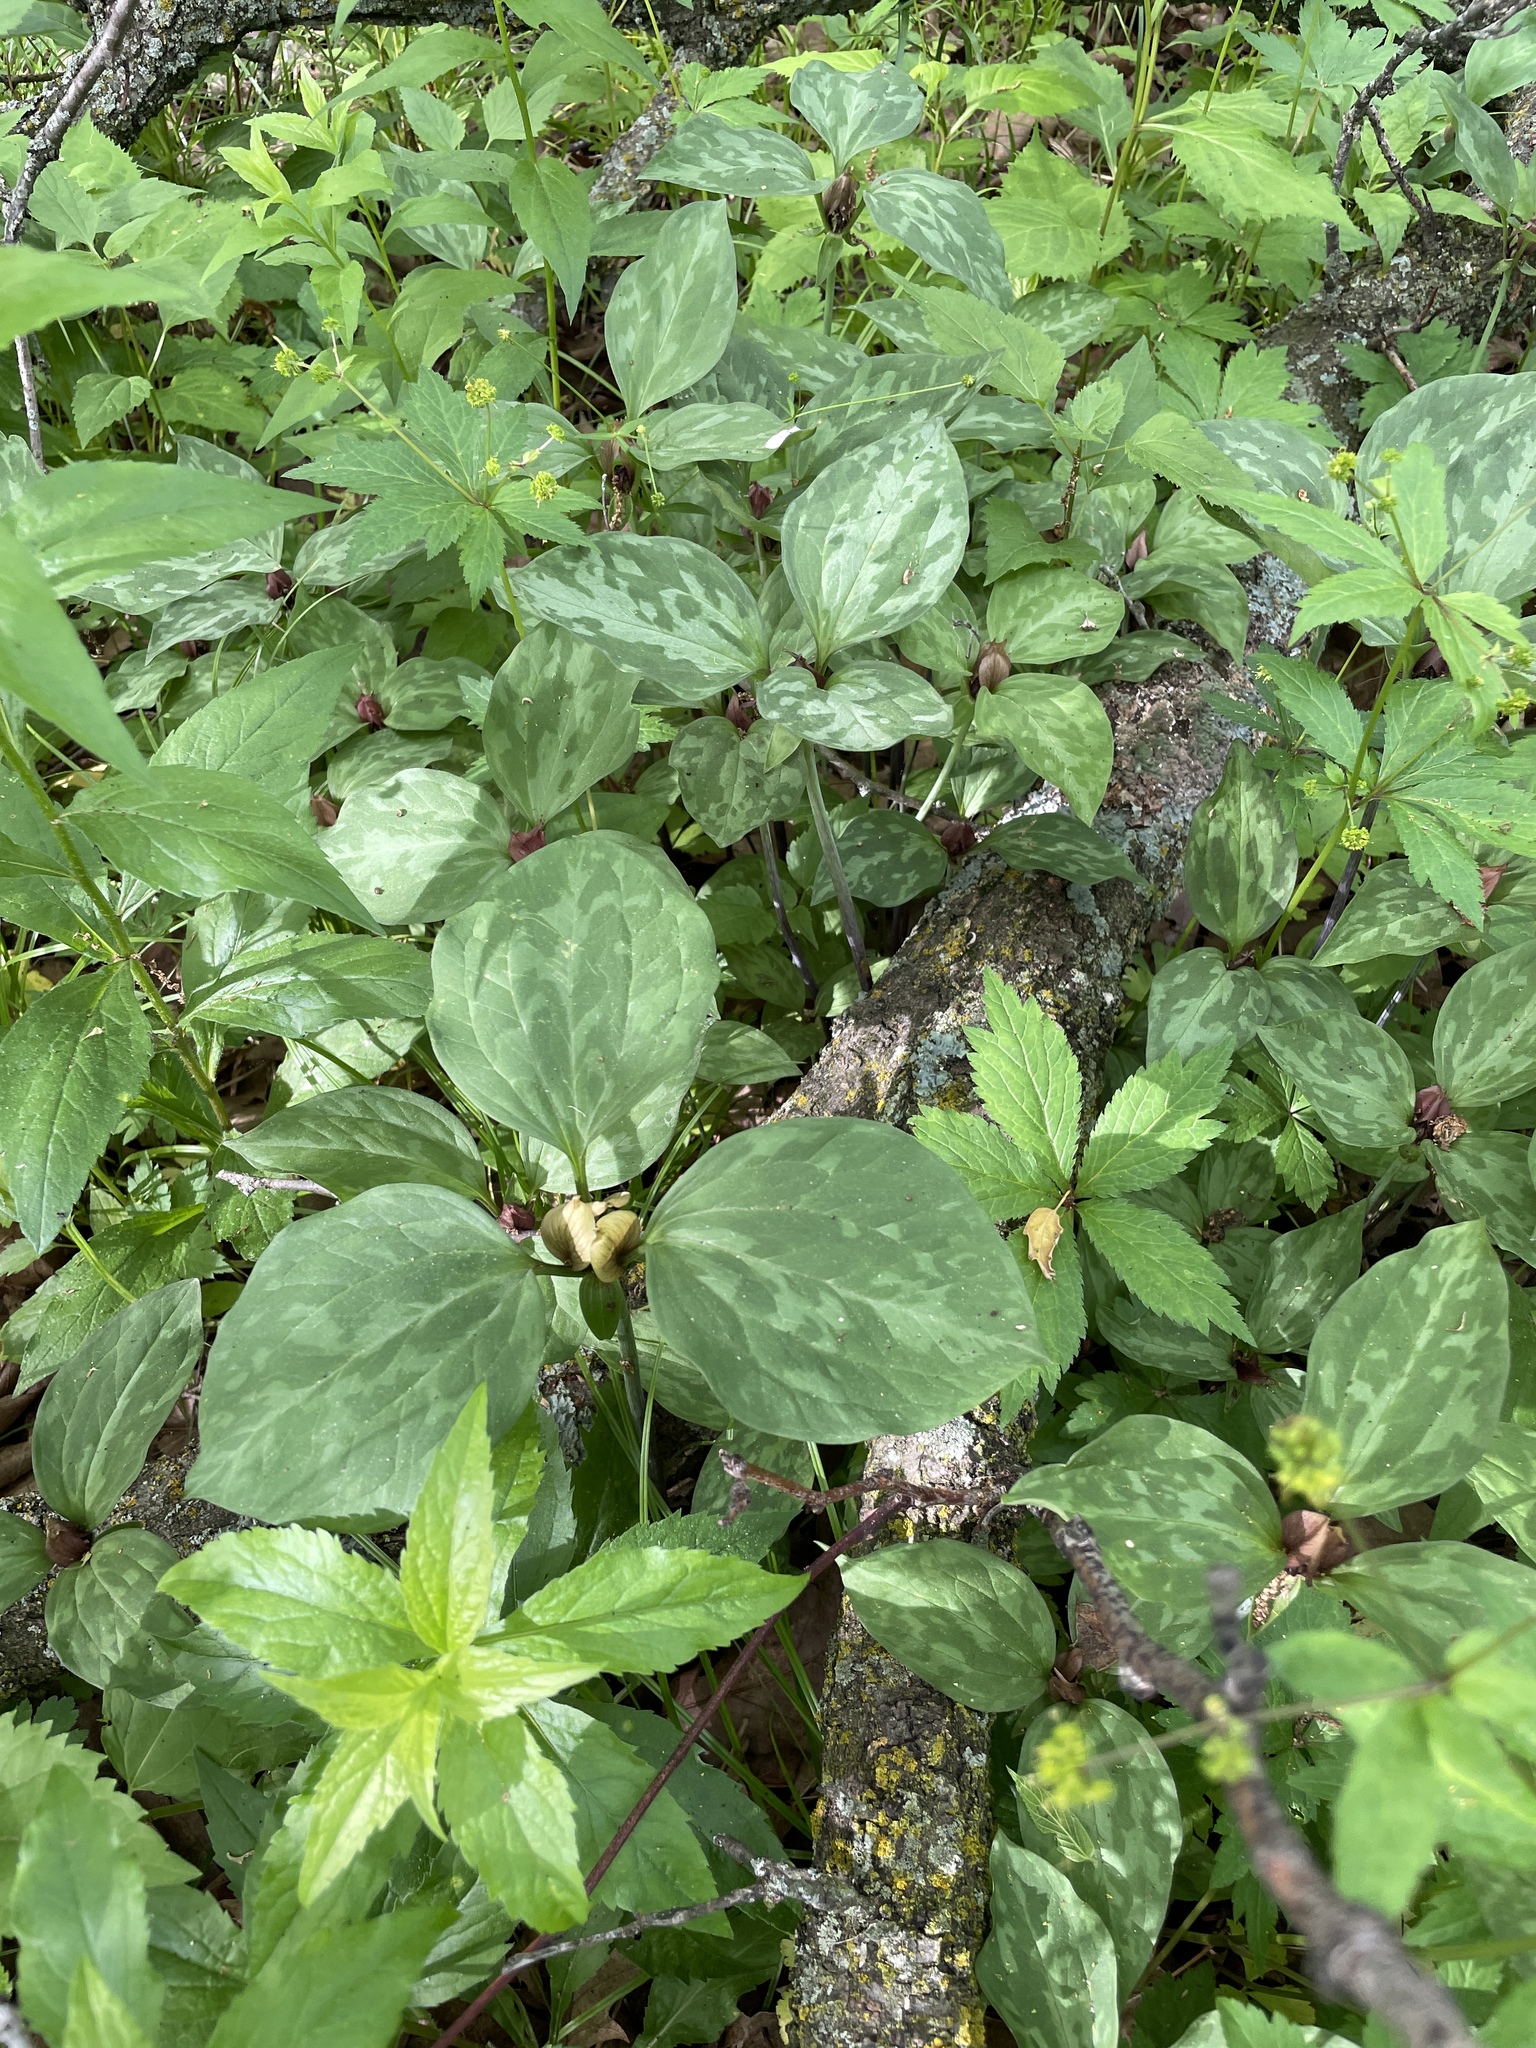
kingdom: Plantae
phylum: Tracheophyta
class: Liliopsida
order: Liliales
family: Melanthiaceae
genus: Trillium
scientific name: Trillium recurvatum
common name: Bloody butcher
